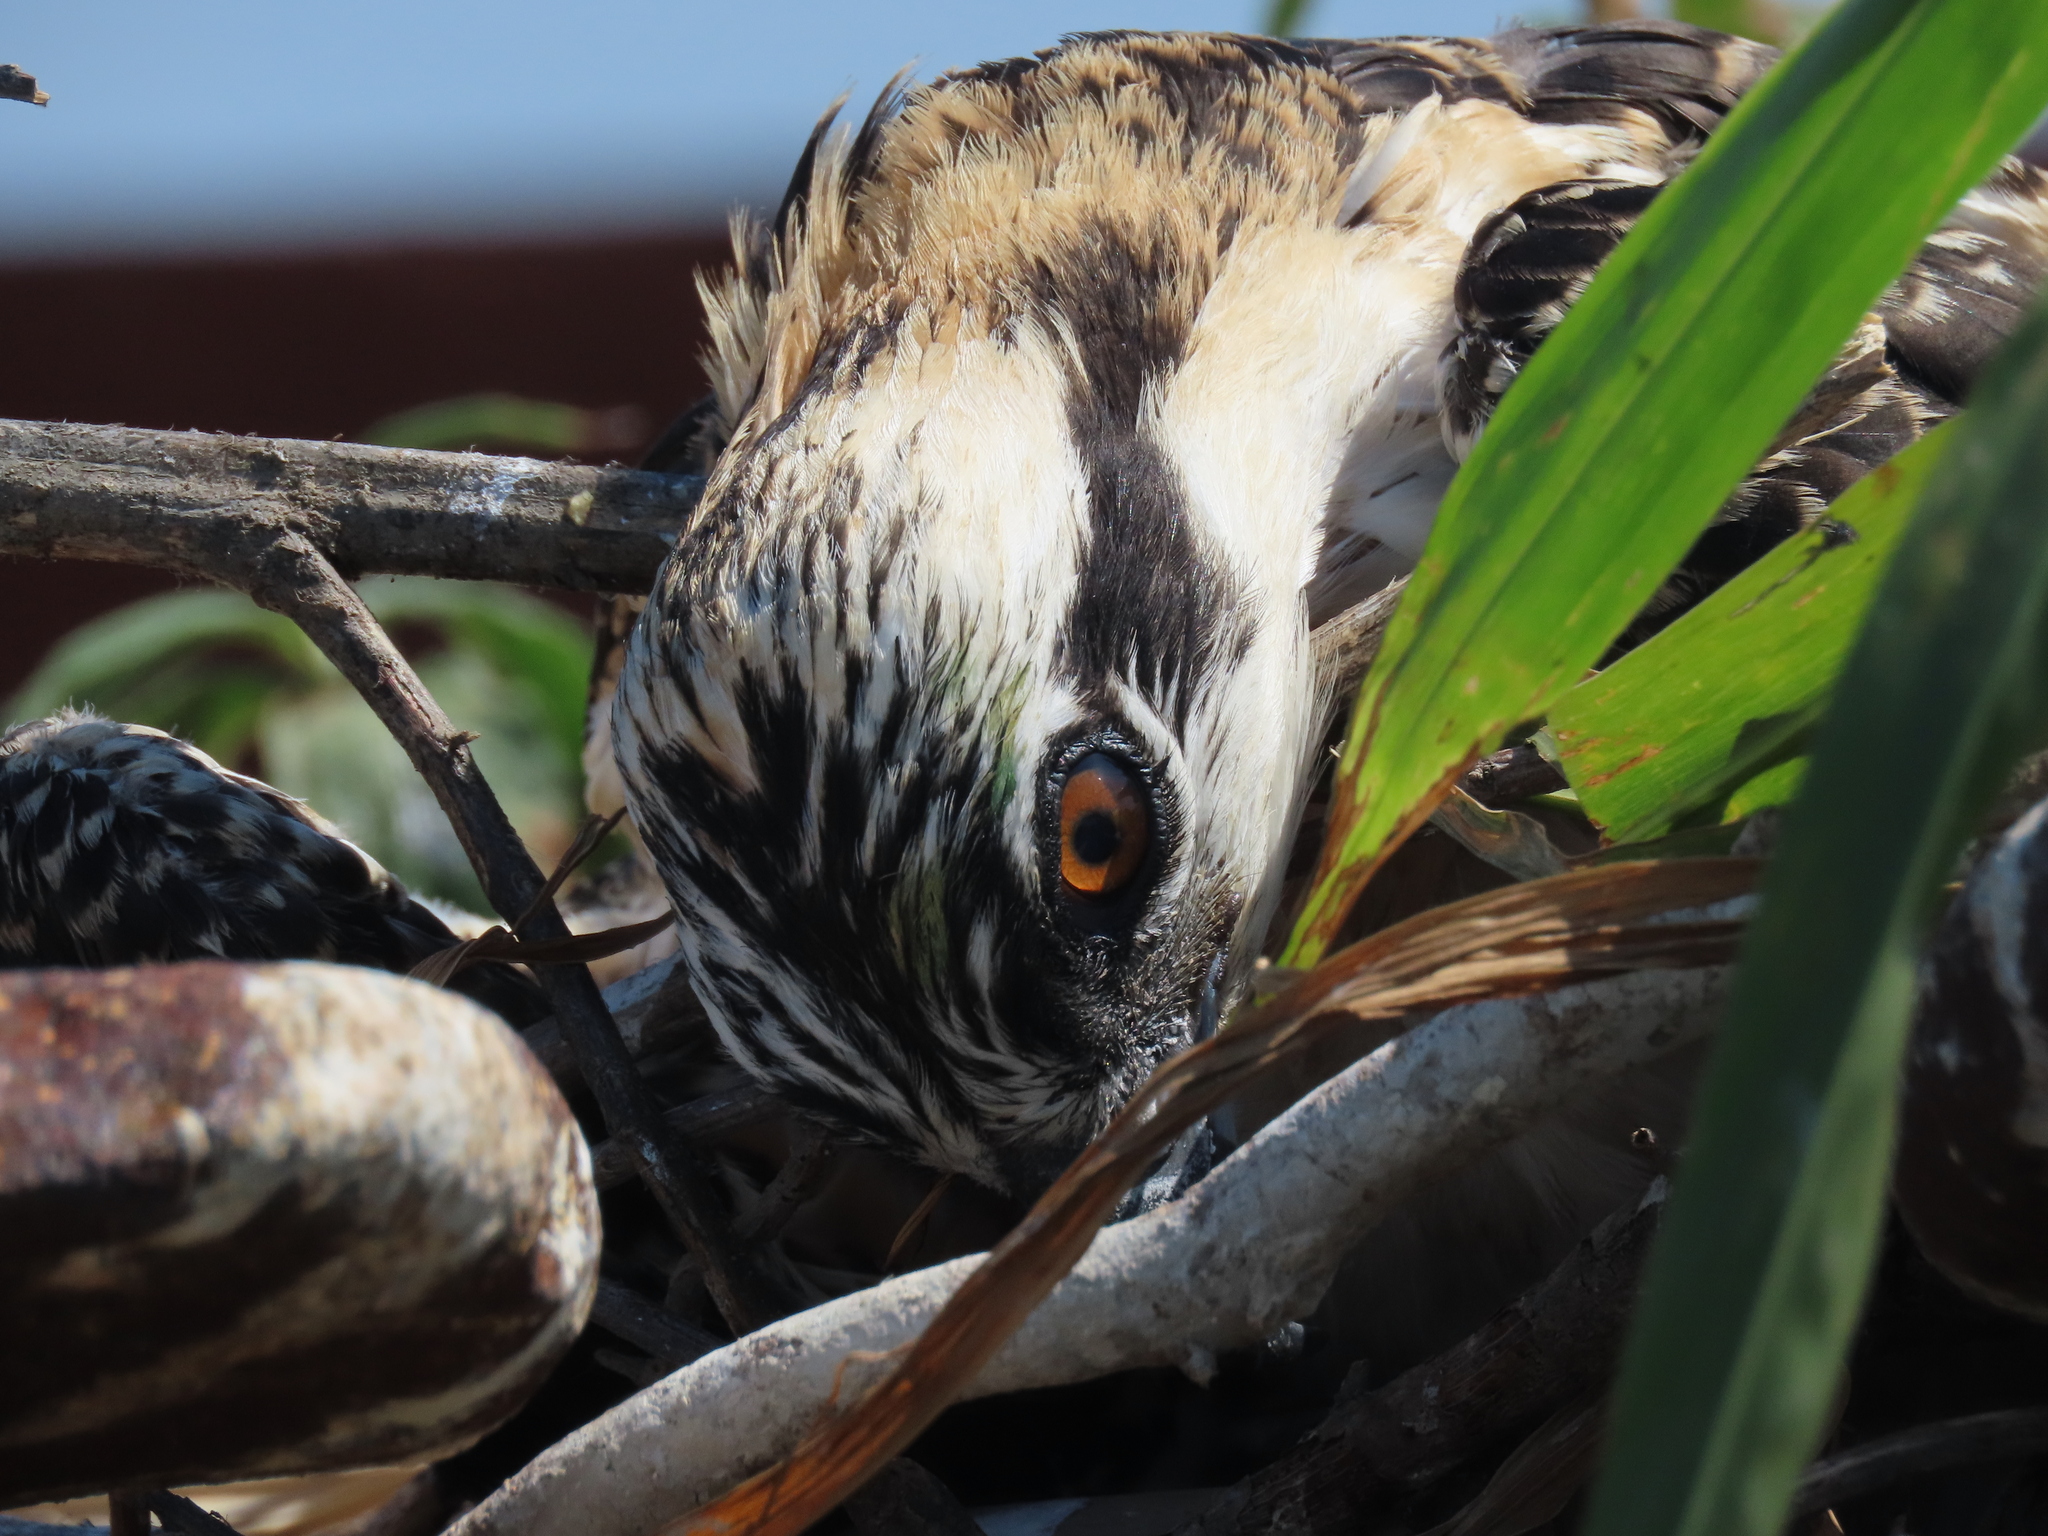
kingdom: Animalia
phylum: Chordata
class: Aves
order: Accipitriformes
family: Pandionidae
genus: Pandion
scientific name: Pandion haliaetus
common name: Osprey
